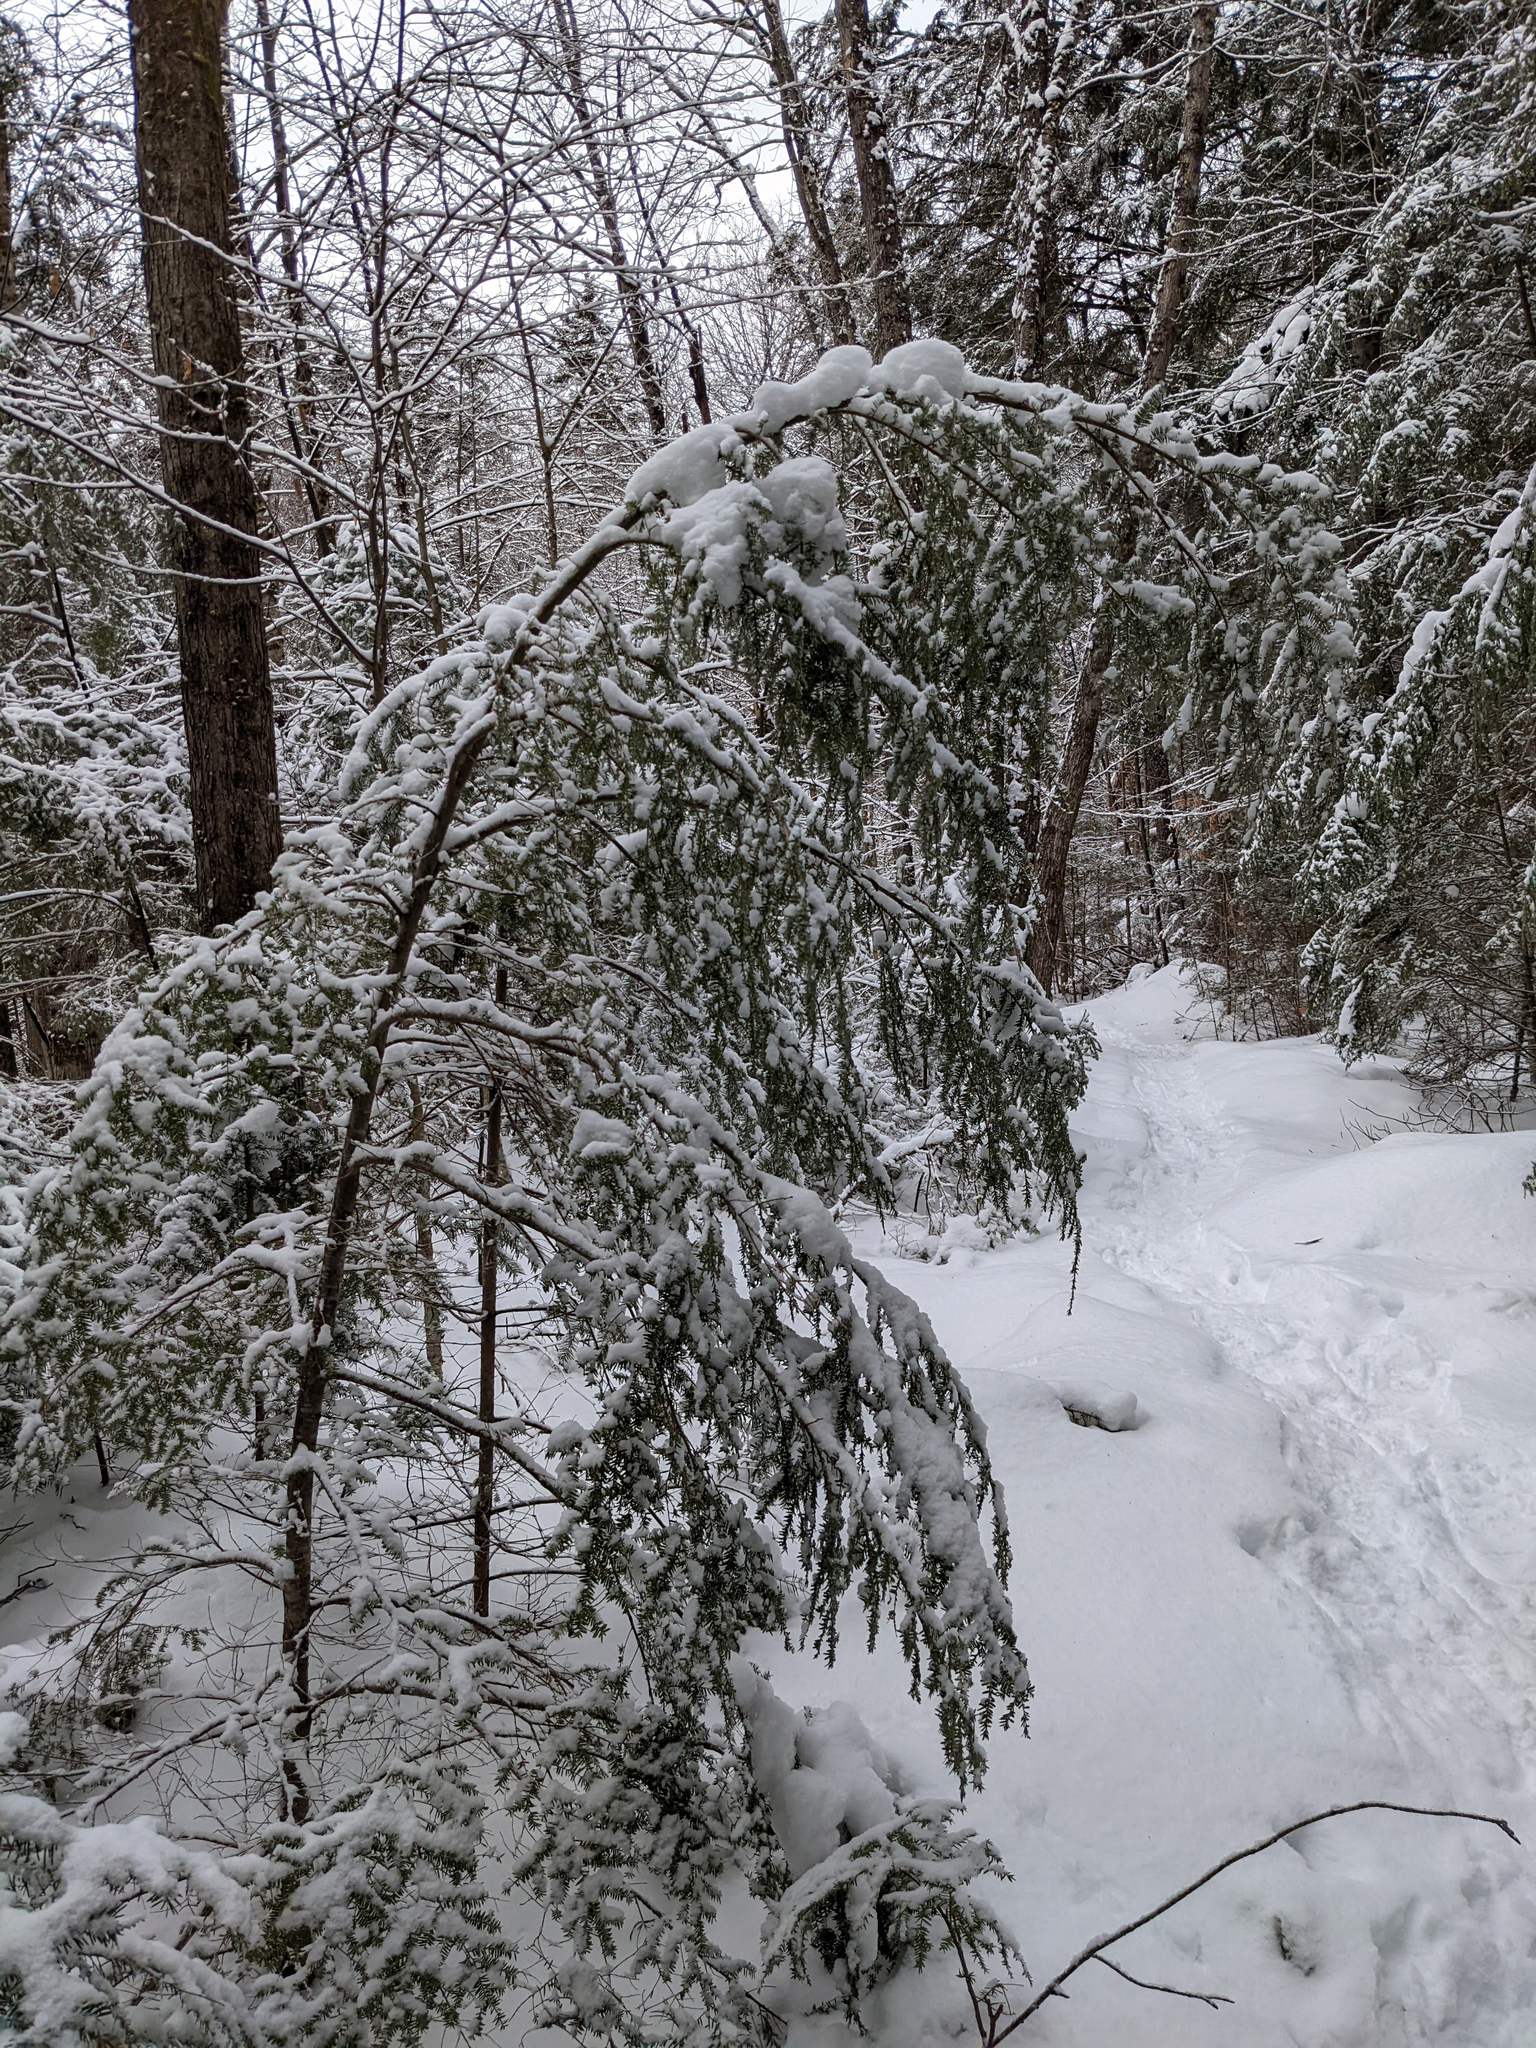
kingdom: Plantae
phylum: Tracheophyta
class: Pinopsida
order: Pinales
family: Pinaceae
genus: Tsuga
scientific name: Tsuga canadensis
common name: Eastern hemlock
